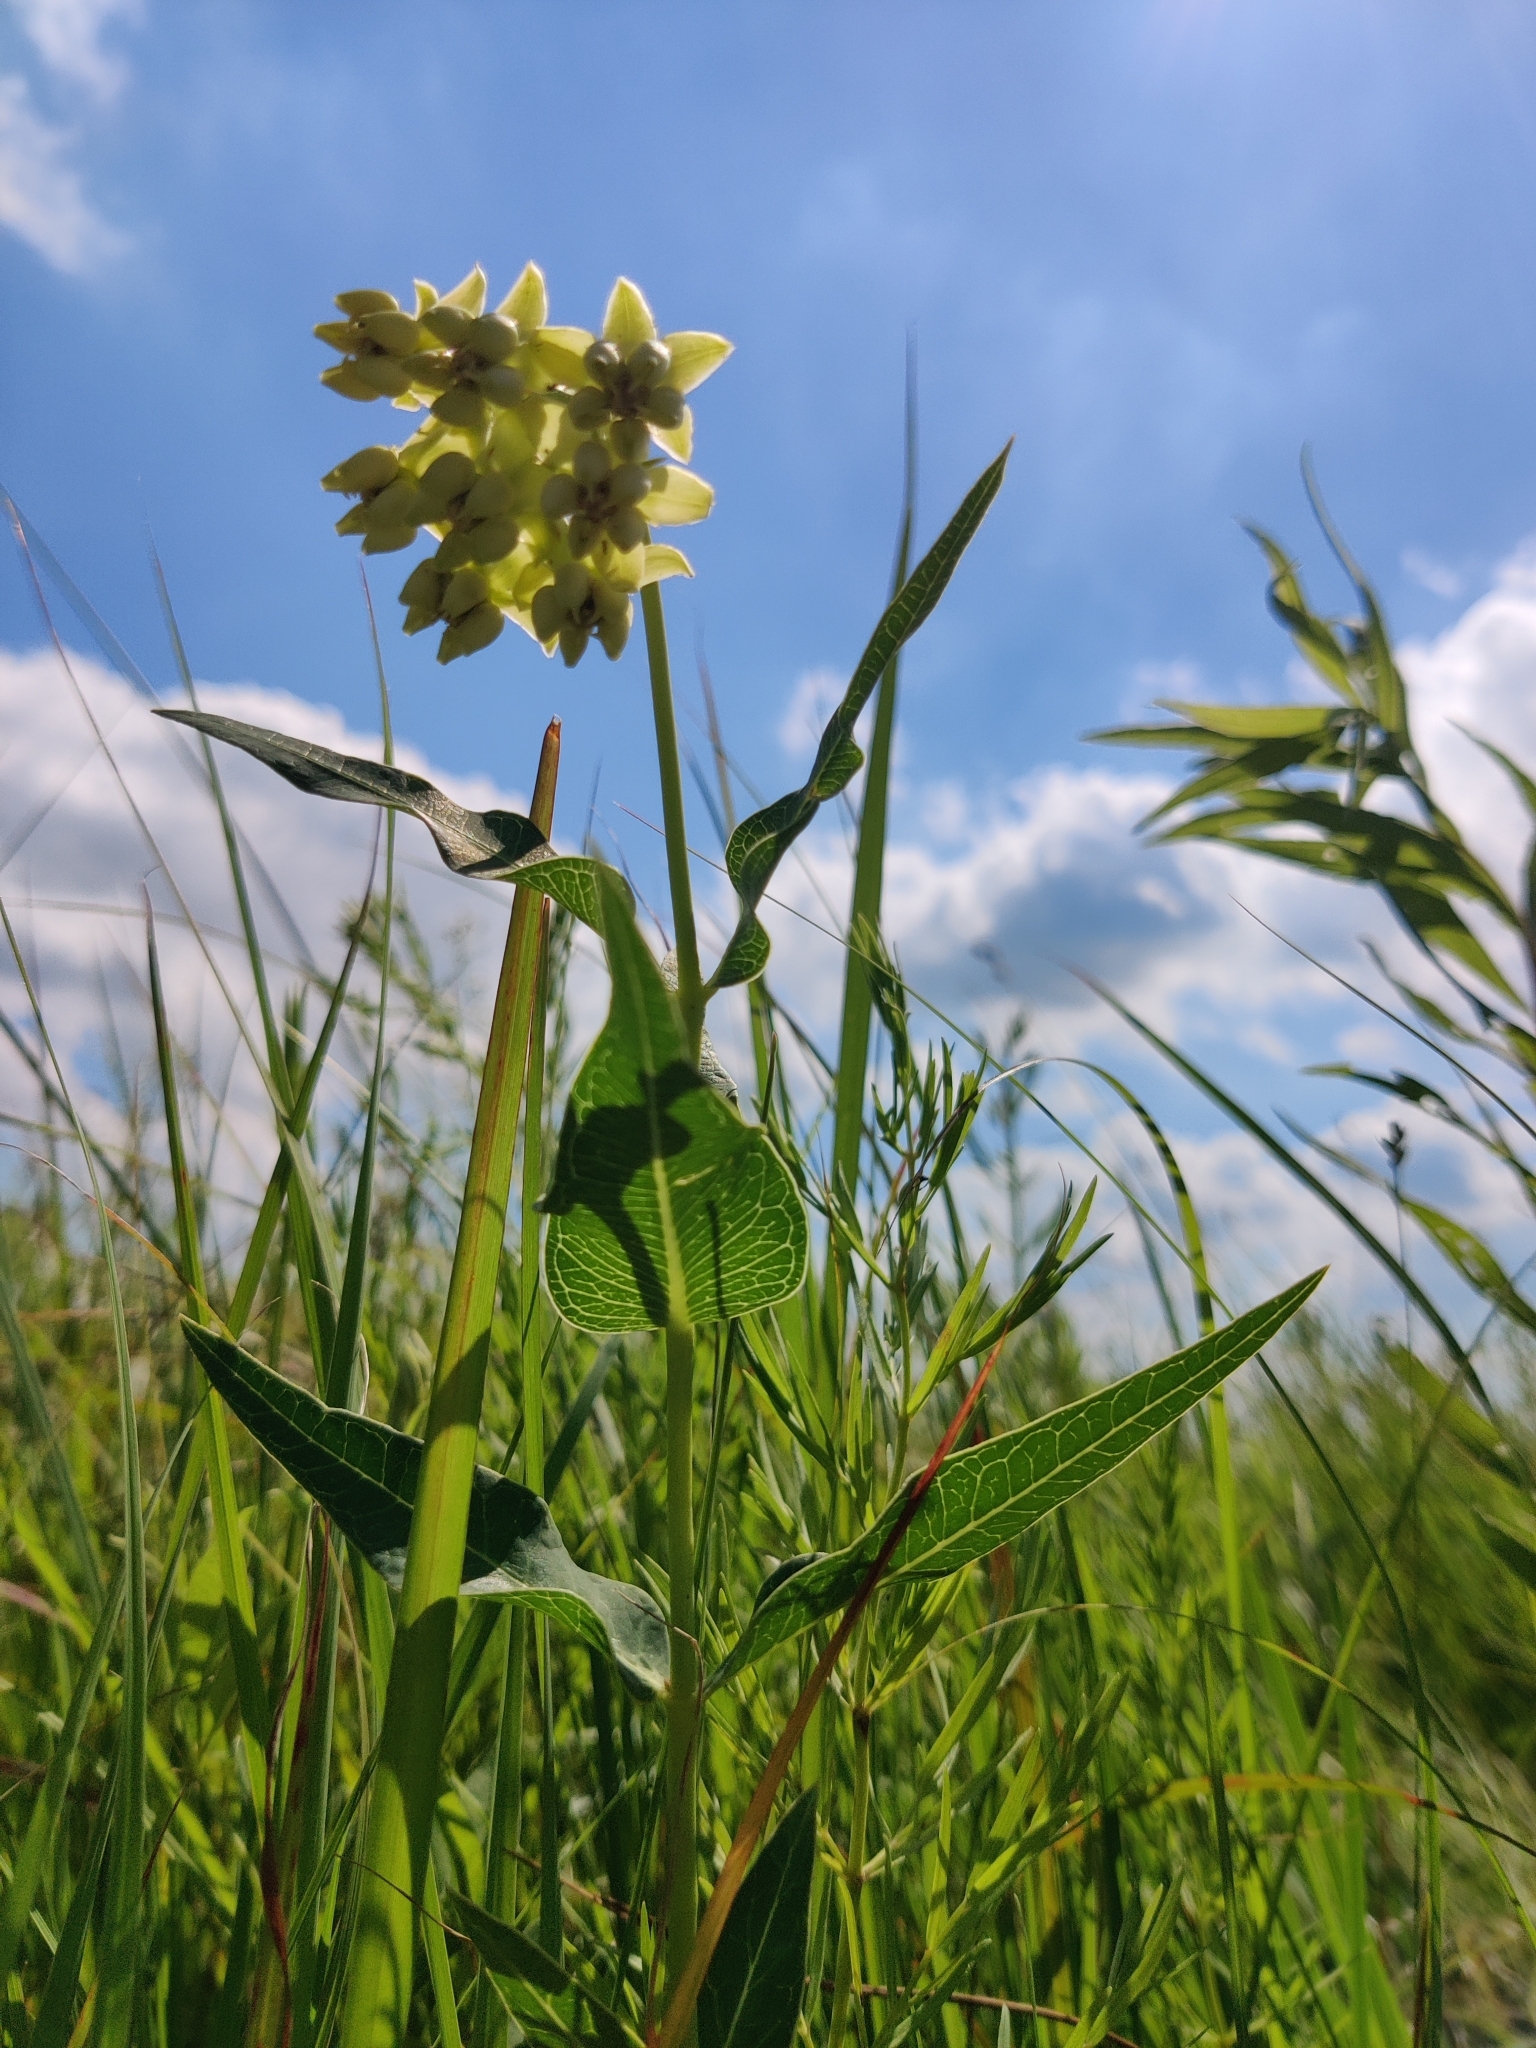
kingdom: Plantae
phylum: Tracheophyta
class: Magnoliopsida
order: Gentianales
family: Apocynaceae
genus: Asclepias
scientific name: Asclepias meadii
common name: Mead's milkweed
